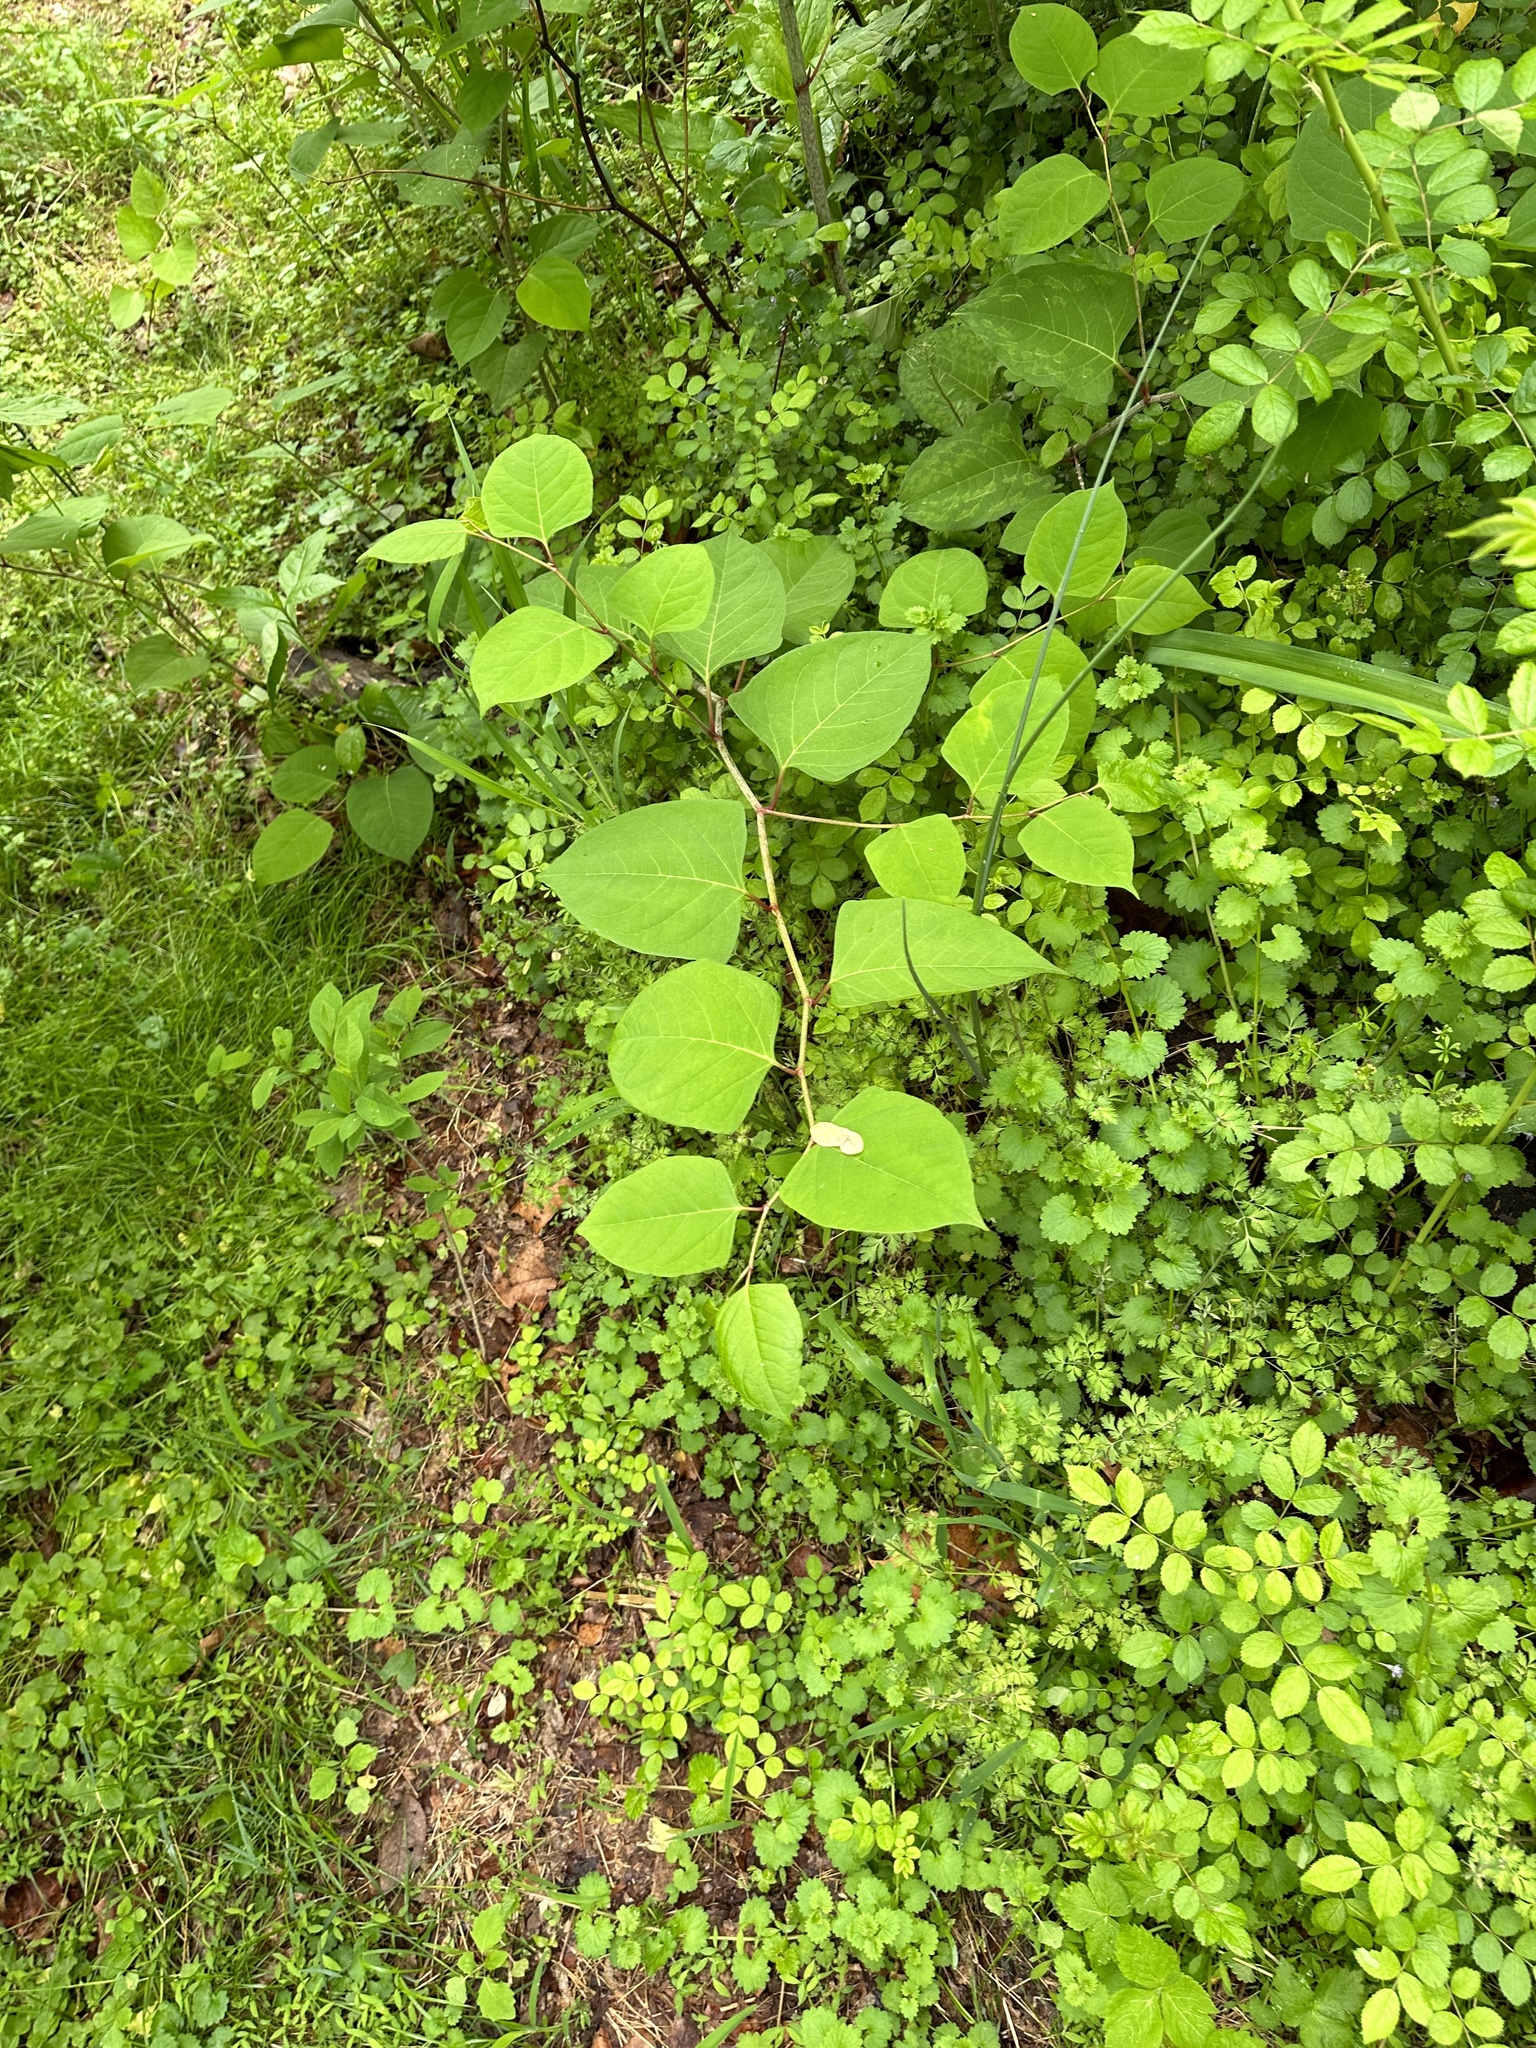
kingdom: Plantae
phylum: Tracheophyta
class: Magnoliopsida
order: Caryophyllales
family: Polygonaceae
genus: Reynoutria
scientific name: Reynoutria japonica
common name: Japanese knotweed
